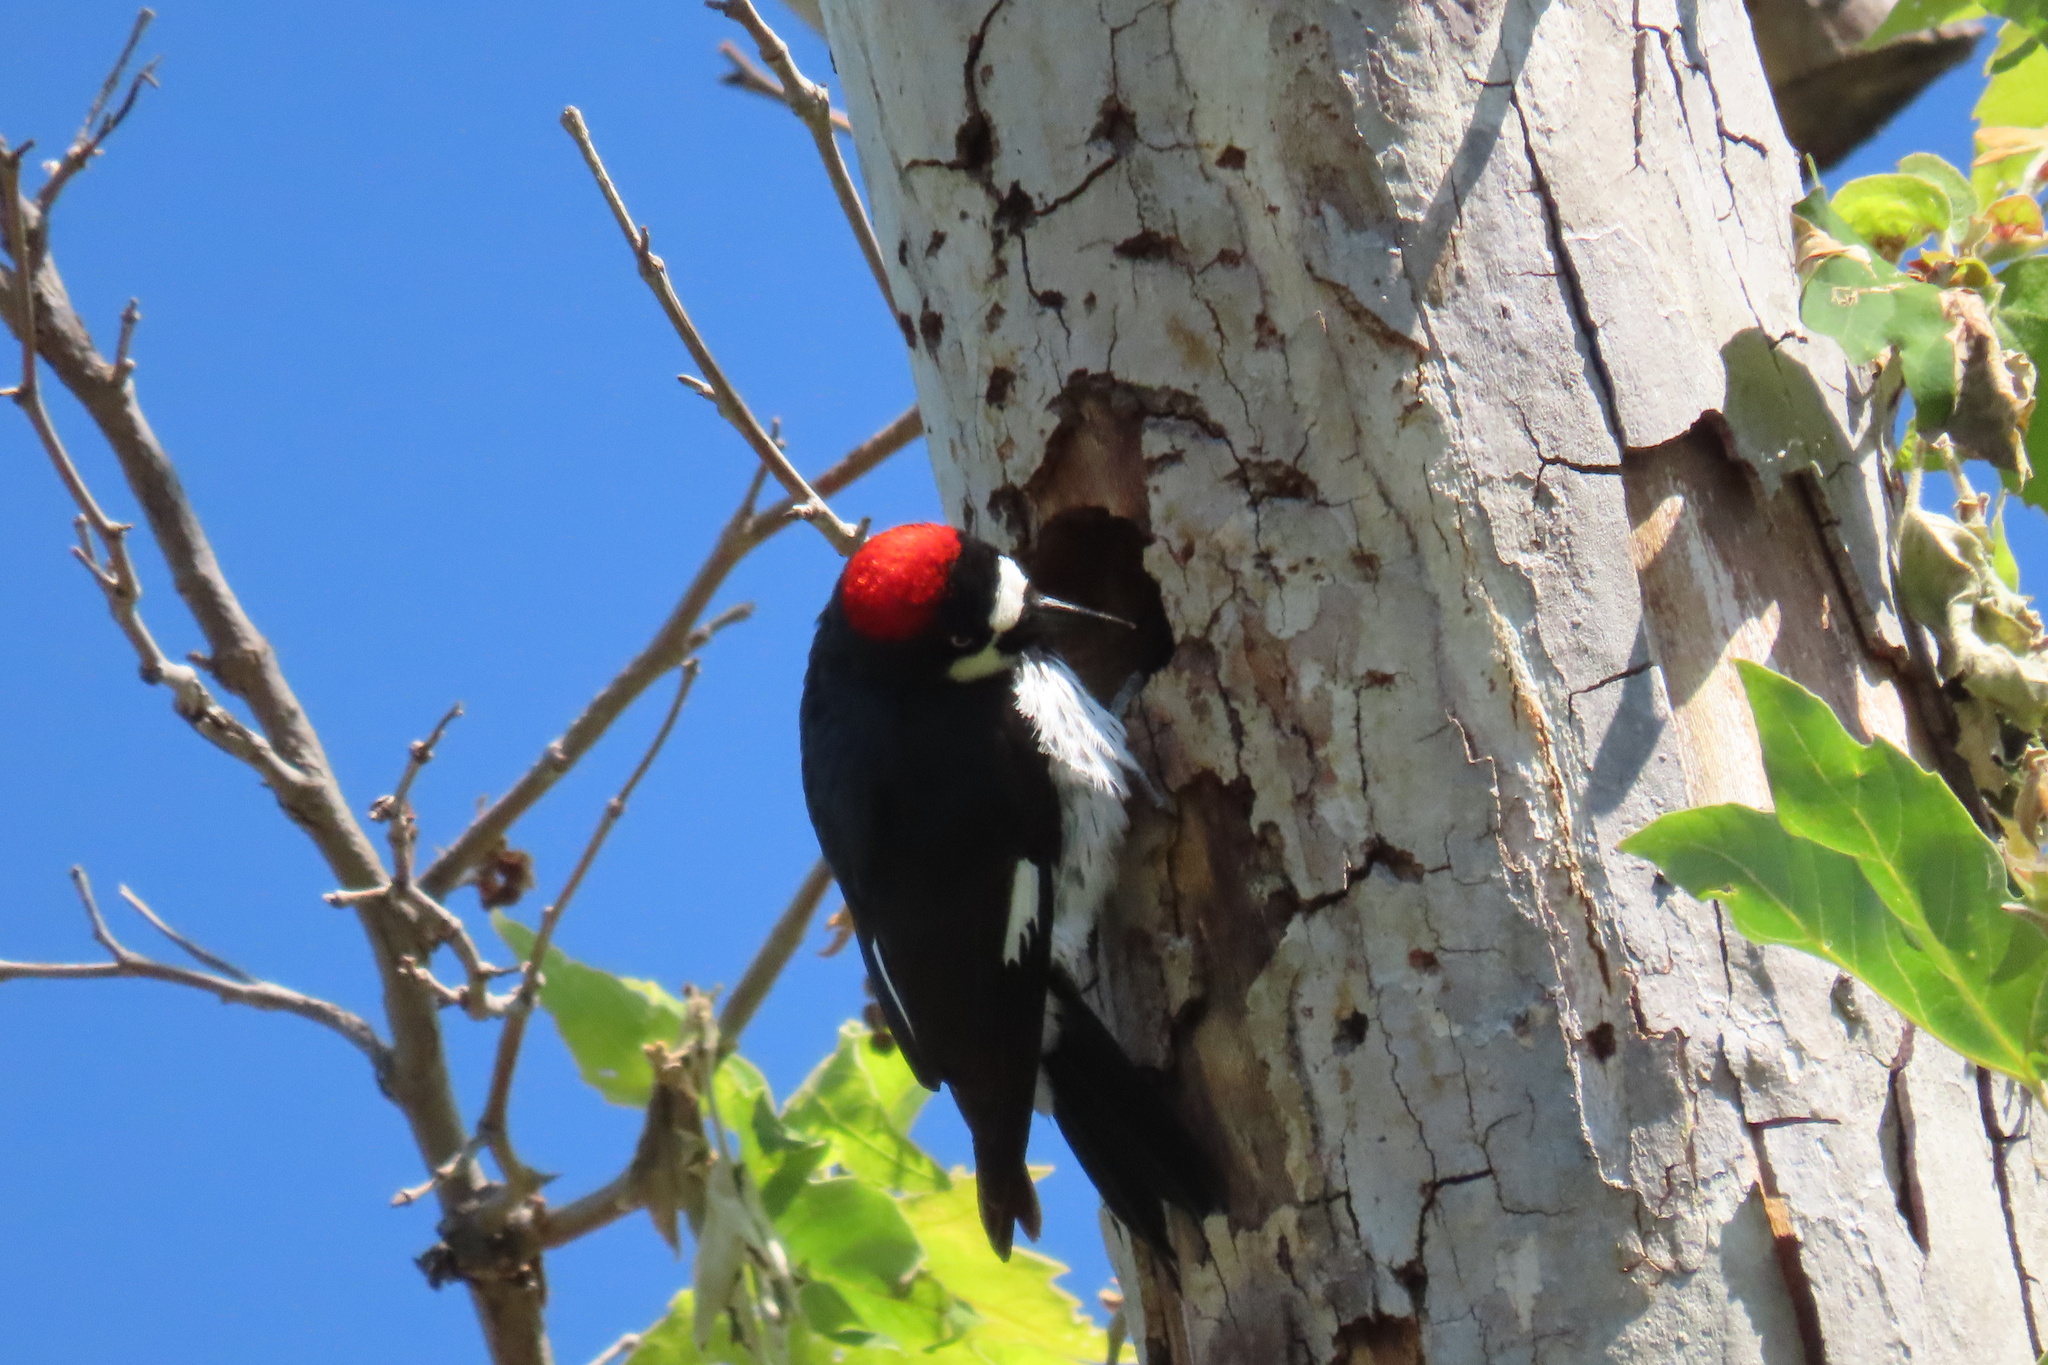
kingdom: Animalia
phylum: Chordata
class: Aves
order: Piciformes
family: Picidae
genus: Melanerpes
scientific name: Melanerpes formicivorus
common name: Acorn woodpecker
